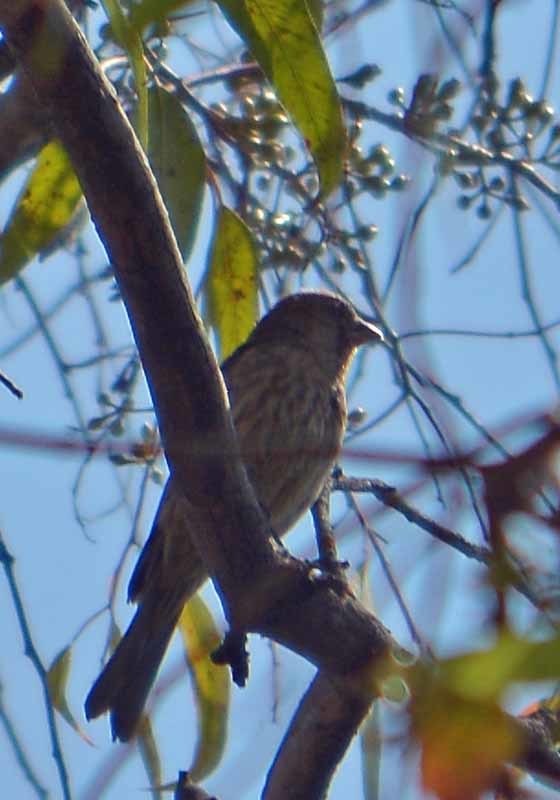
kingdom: Animalia
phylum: Chordata
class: Aves
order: Passeriformes
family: Fringillidae
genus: Haemorhous
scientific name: Haemorhous mexicanus
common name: House finch
